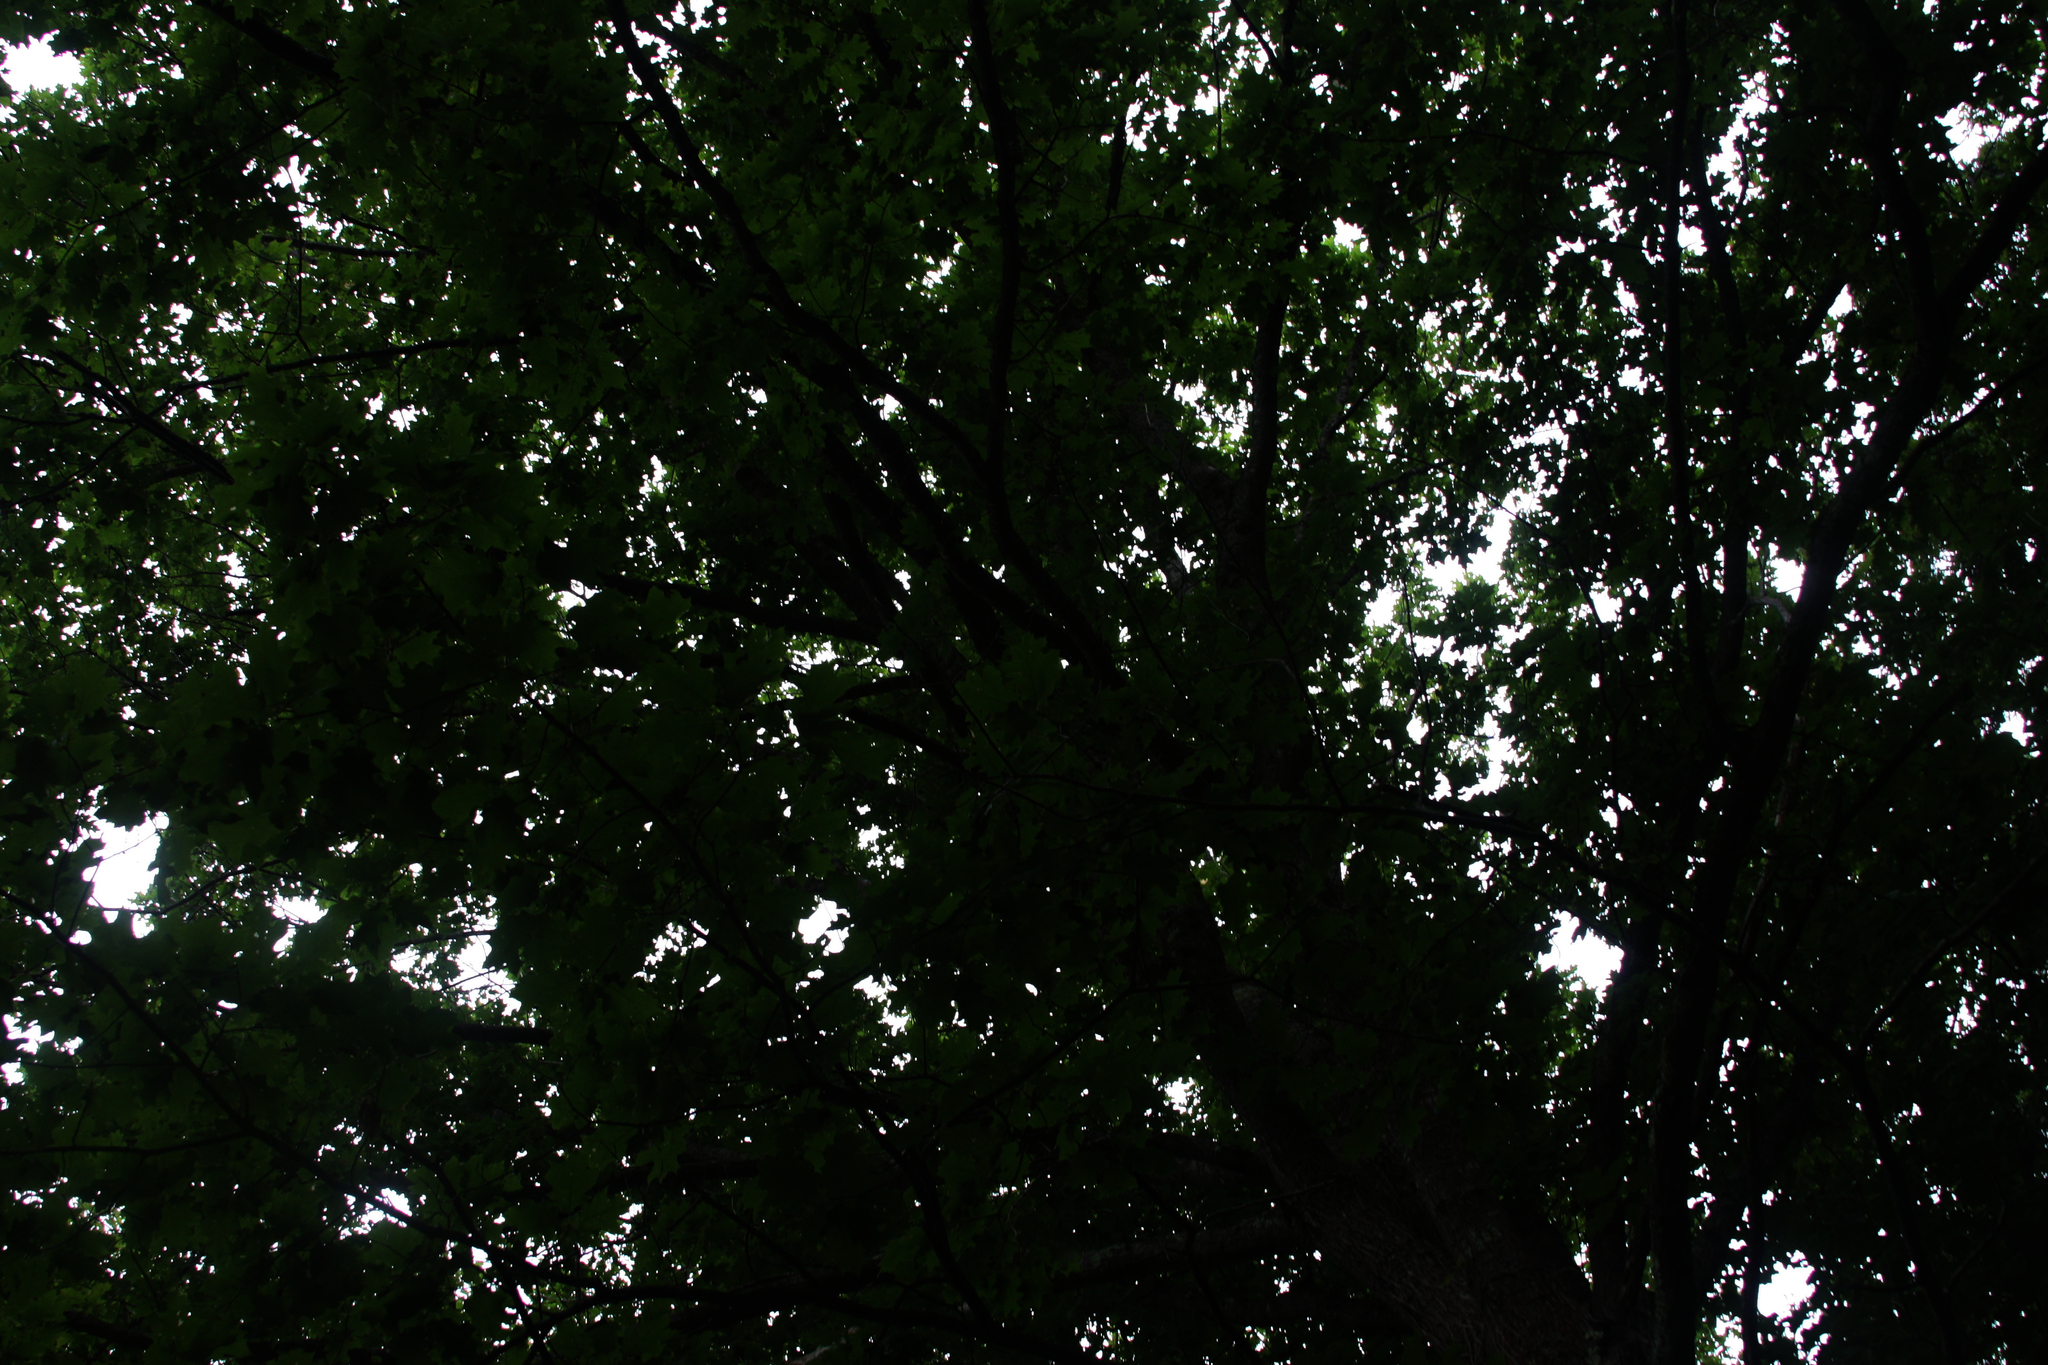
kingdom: Plantae
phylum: Tracheophyta
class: Magnoliopsida
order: Fagales
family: Fagaceae
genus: Quercus
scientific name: Quercus rubra
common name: Red oak
